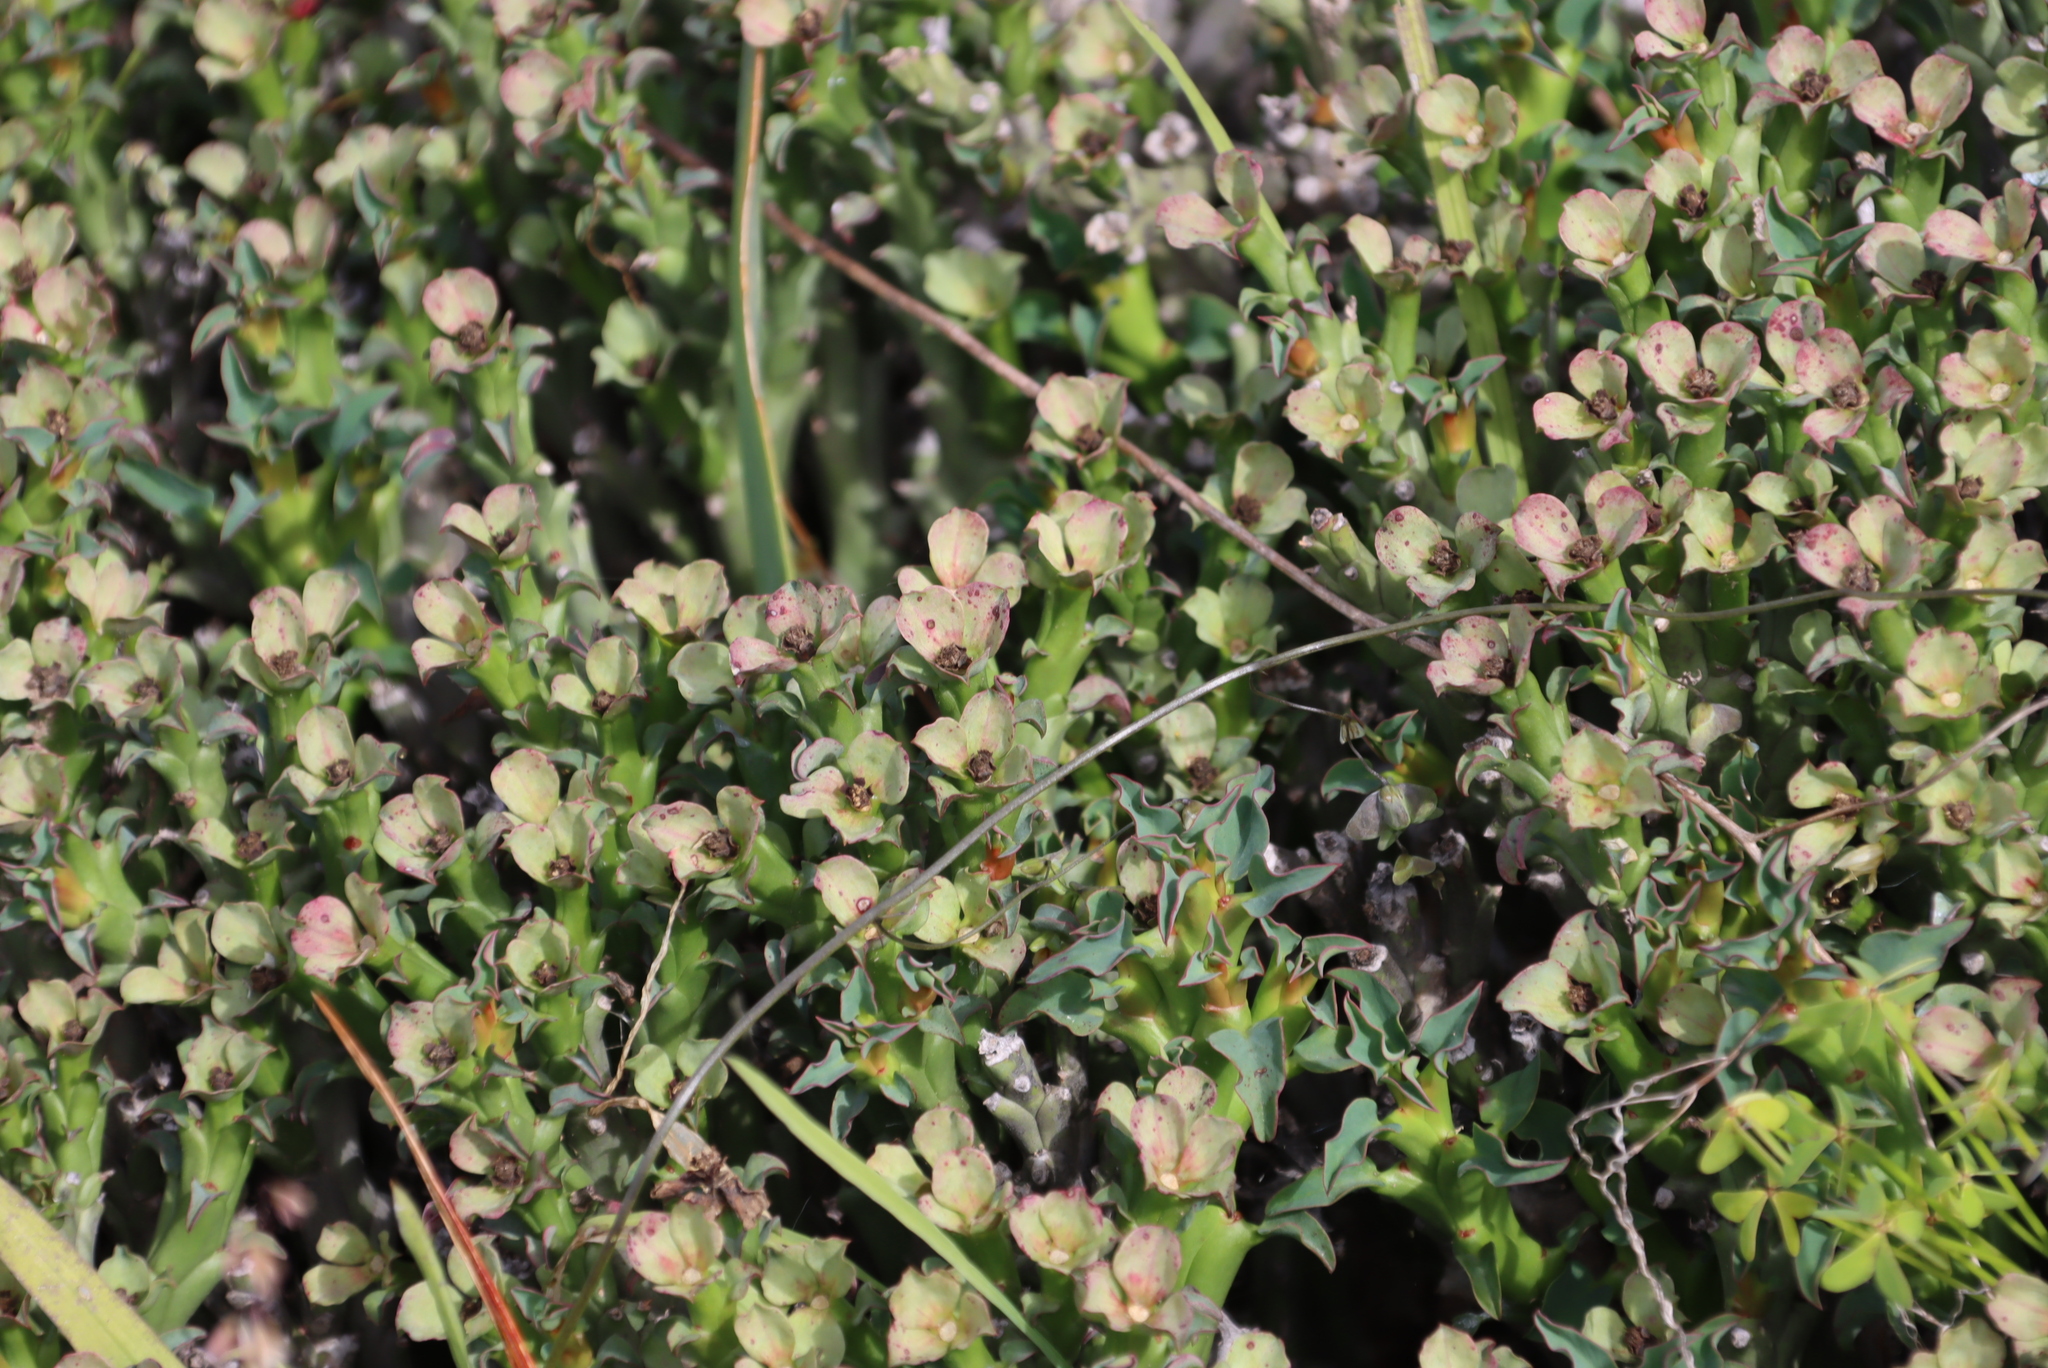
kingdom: Plantae
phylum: Tracheophyta
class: Magnoliopsida
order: Malpighiales
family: Euphorbiaceae
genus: Euphorbia
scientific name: Euphorbia hamata
